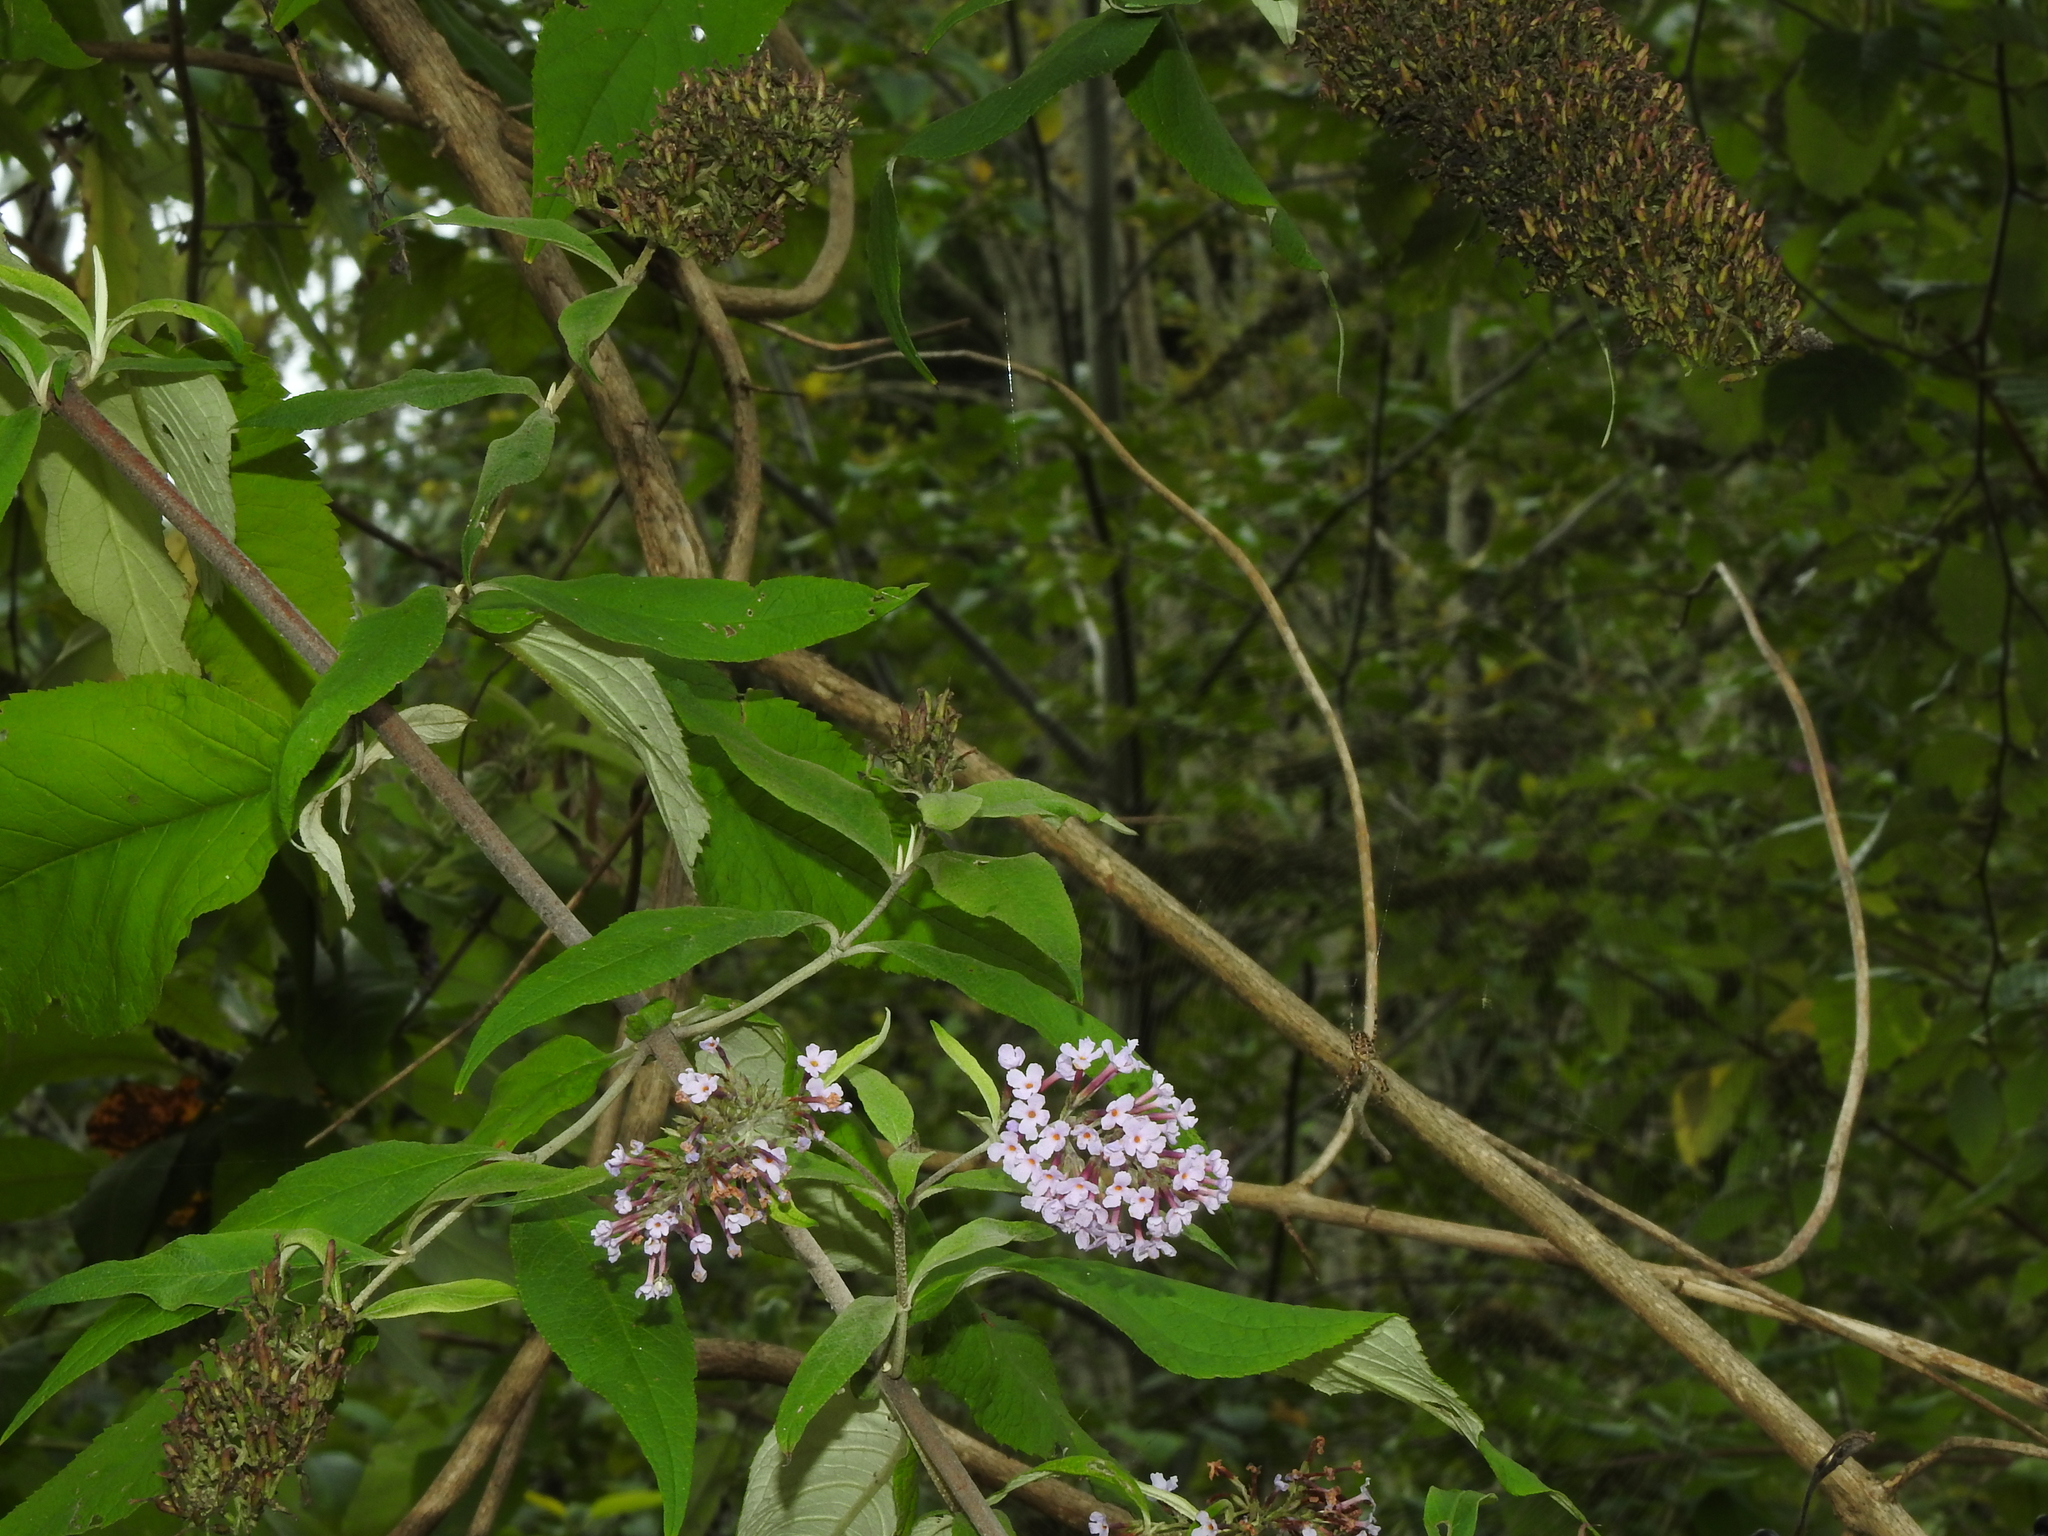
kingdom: Plantae
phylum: Tracheophyta
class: Magnoliopsida
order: Lamiales
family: Scrophulariaceae
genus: Buddleja
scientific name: Buddleja davidii
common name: Butterfly-bush
